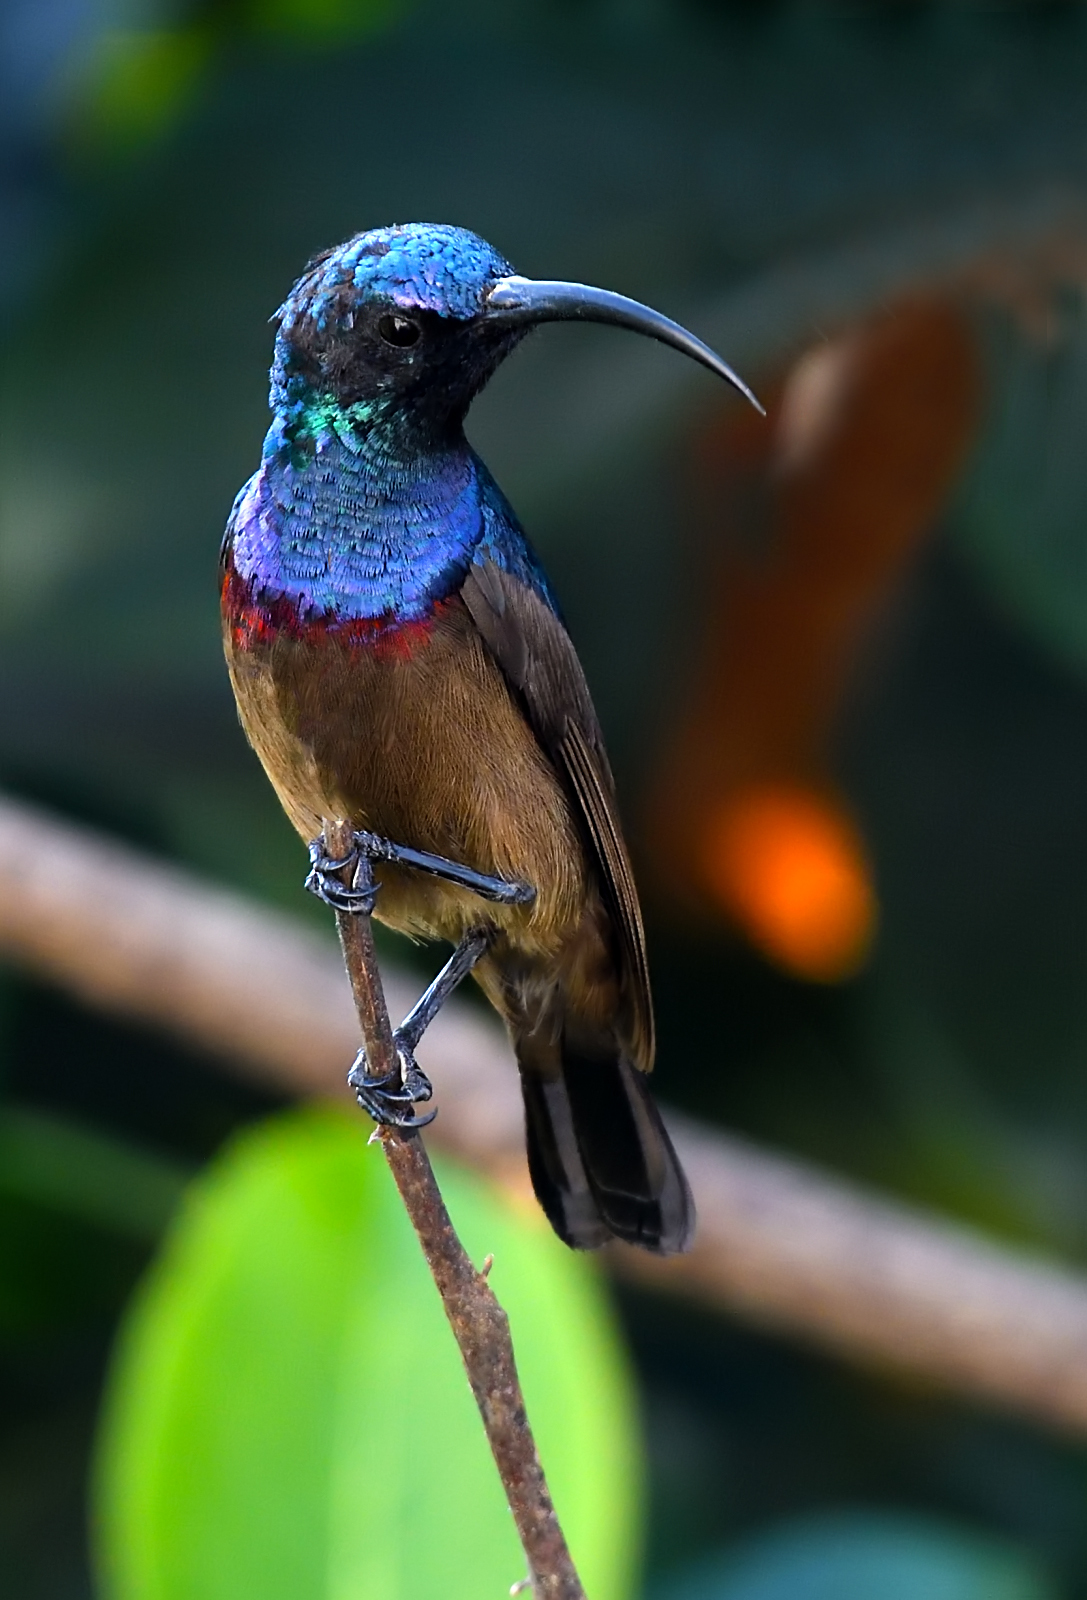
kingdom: Animalia
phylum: Chordata
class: Aves
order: Passeriformes
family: Nectariniidae
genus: Cinnyris
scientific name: Cinnyris lotenius
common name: Loten's sunbird
